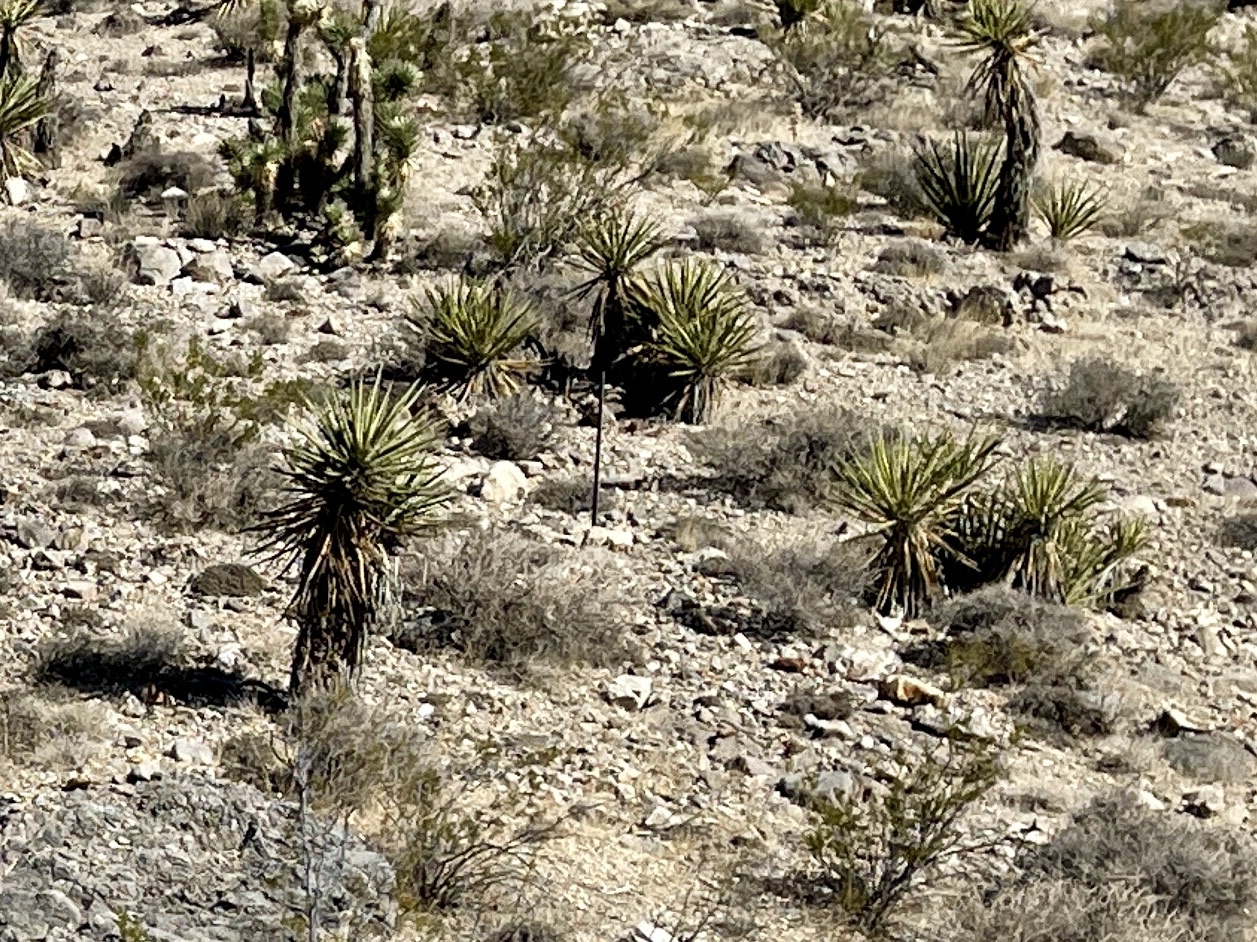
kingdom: Plantae
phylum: Tracheophyta
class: Liliopsida
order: Asparagales
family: Asparagaceae
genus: Yucca
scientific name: Yucca schidigera
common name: Mojave yucca
